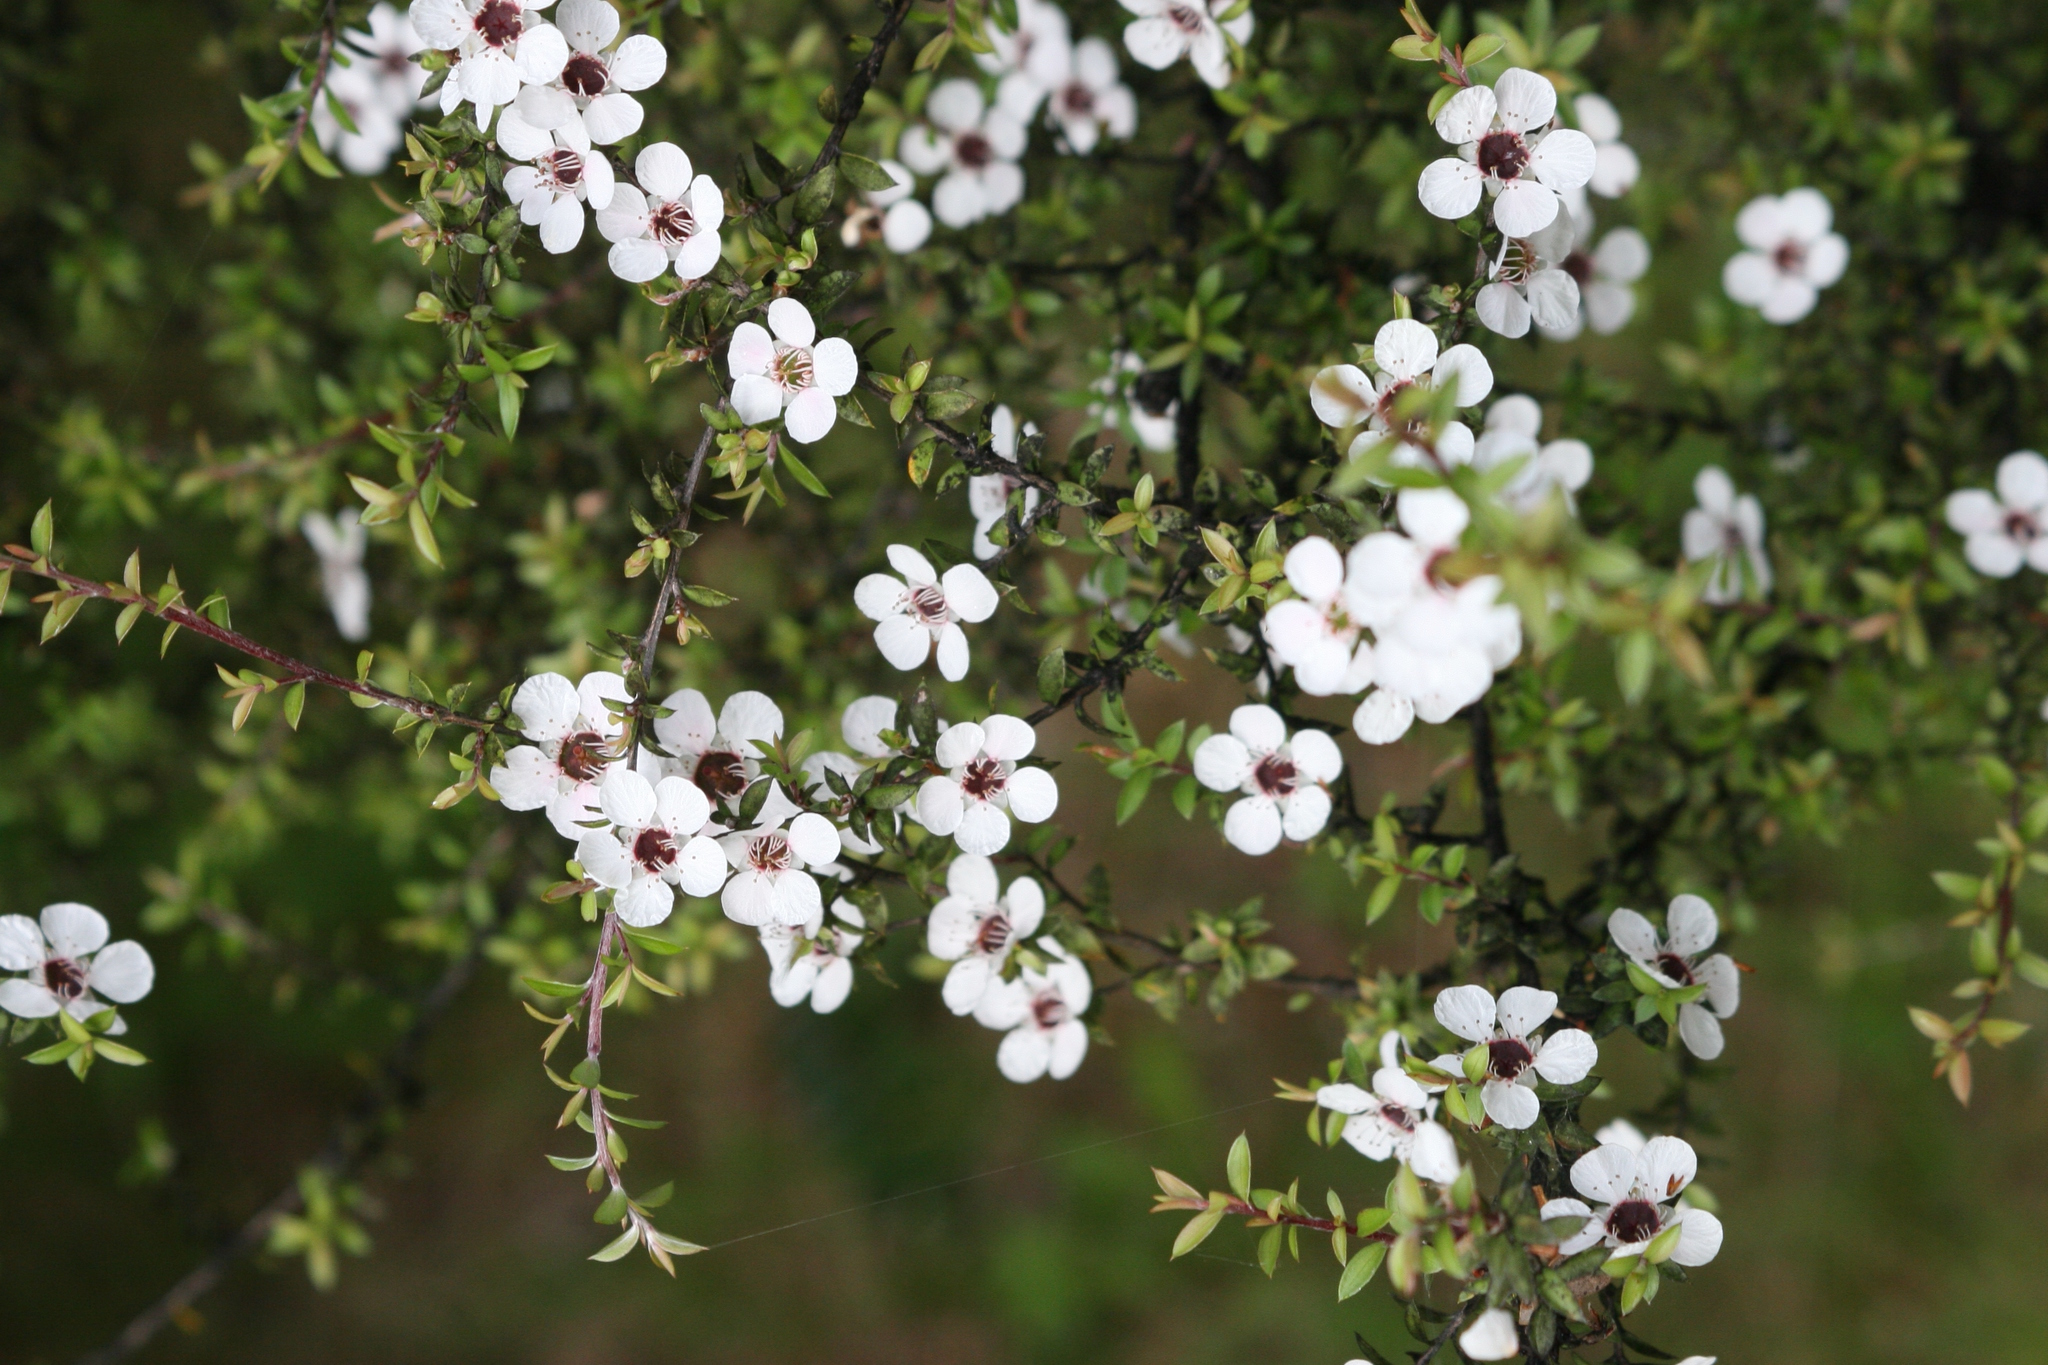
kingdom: Plantae
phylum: Tracheophyta
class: Magnoliopsida
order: Myrtales
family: Myrtaceae
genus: Leptospermum
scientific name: Leptospermum scoparium
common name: Broom tea-tree
